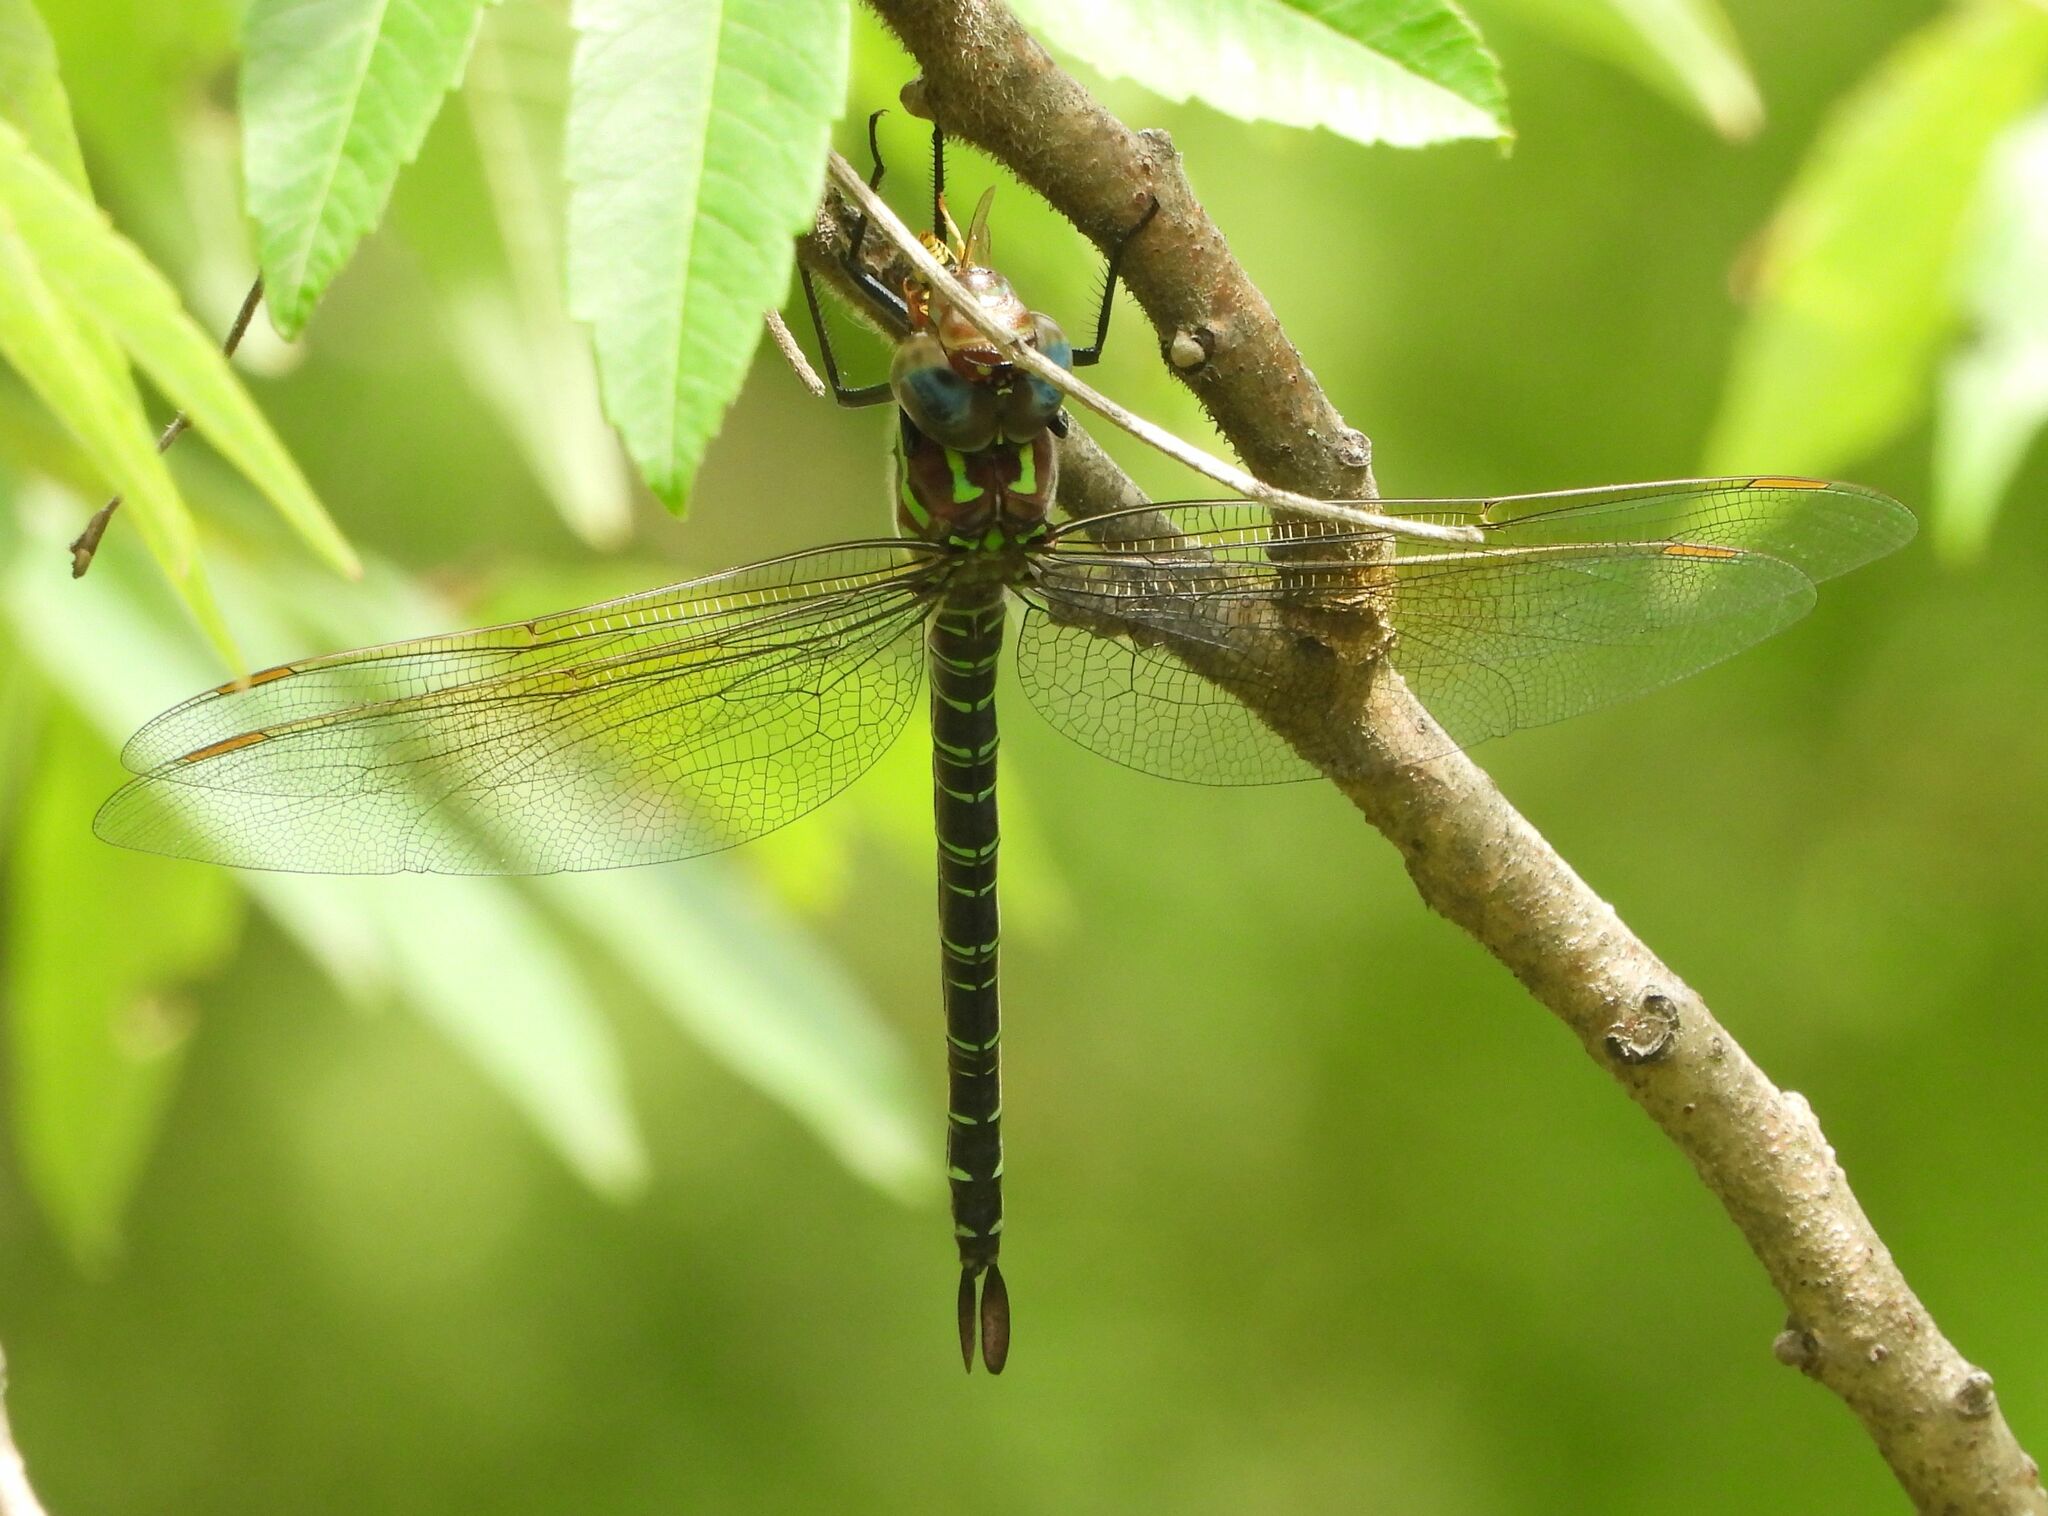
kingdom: Animalia
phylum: Arthropoda
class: Insecta
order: Odonata
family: Aeshnidae
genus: Epiaeschna
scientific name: Epiaeschna heros
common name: Swamp darner
